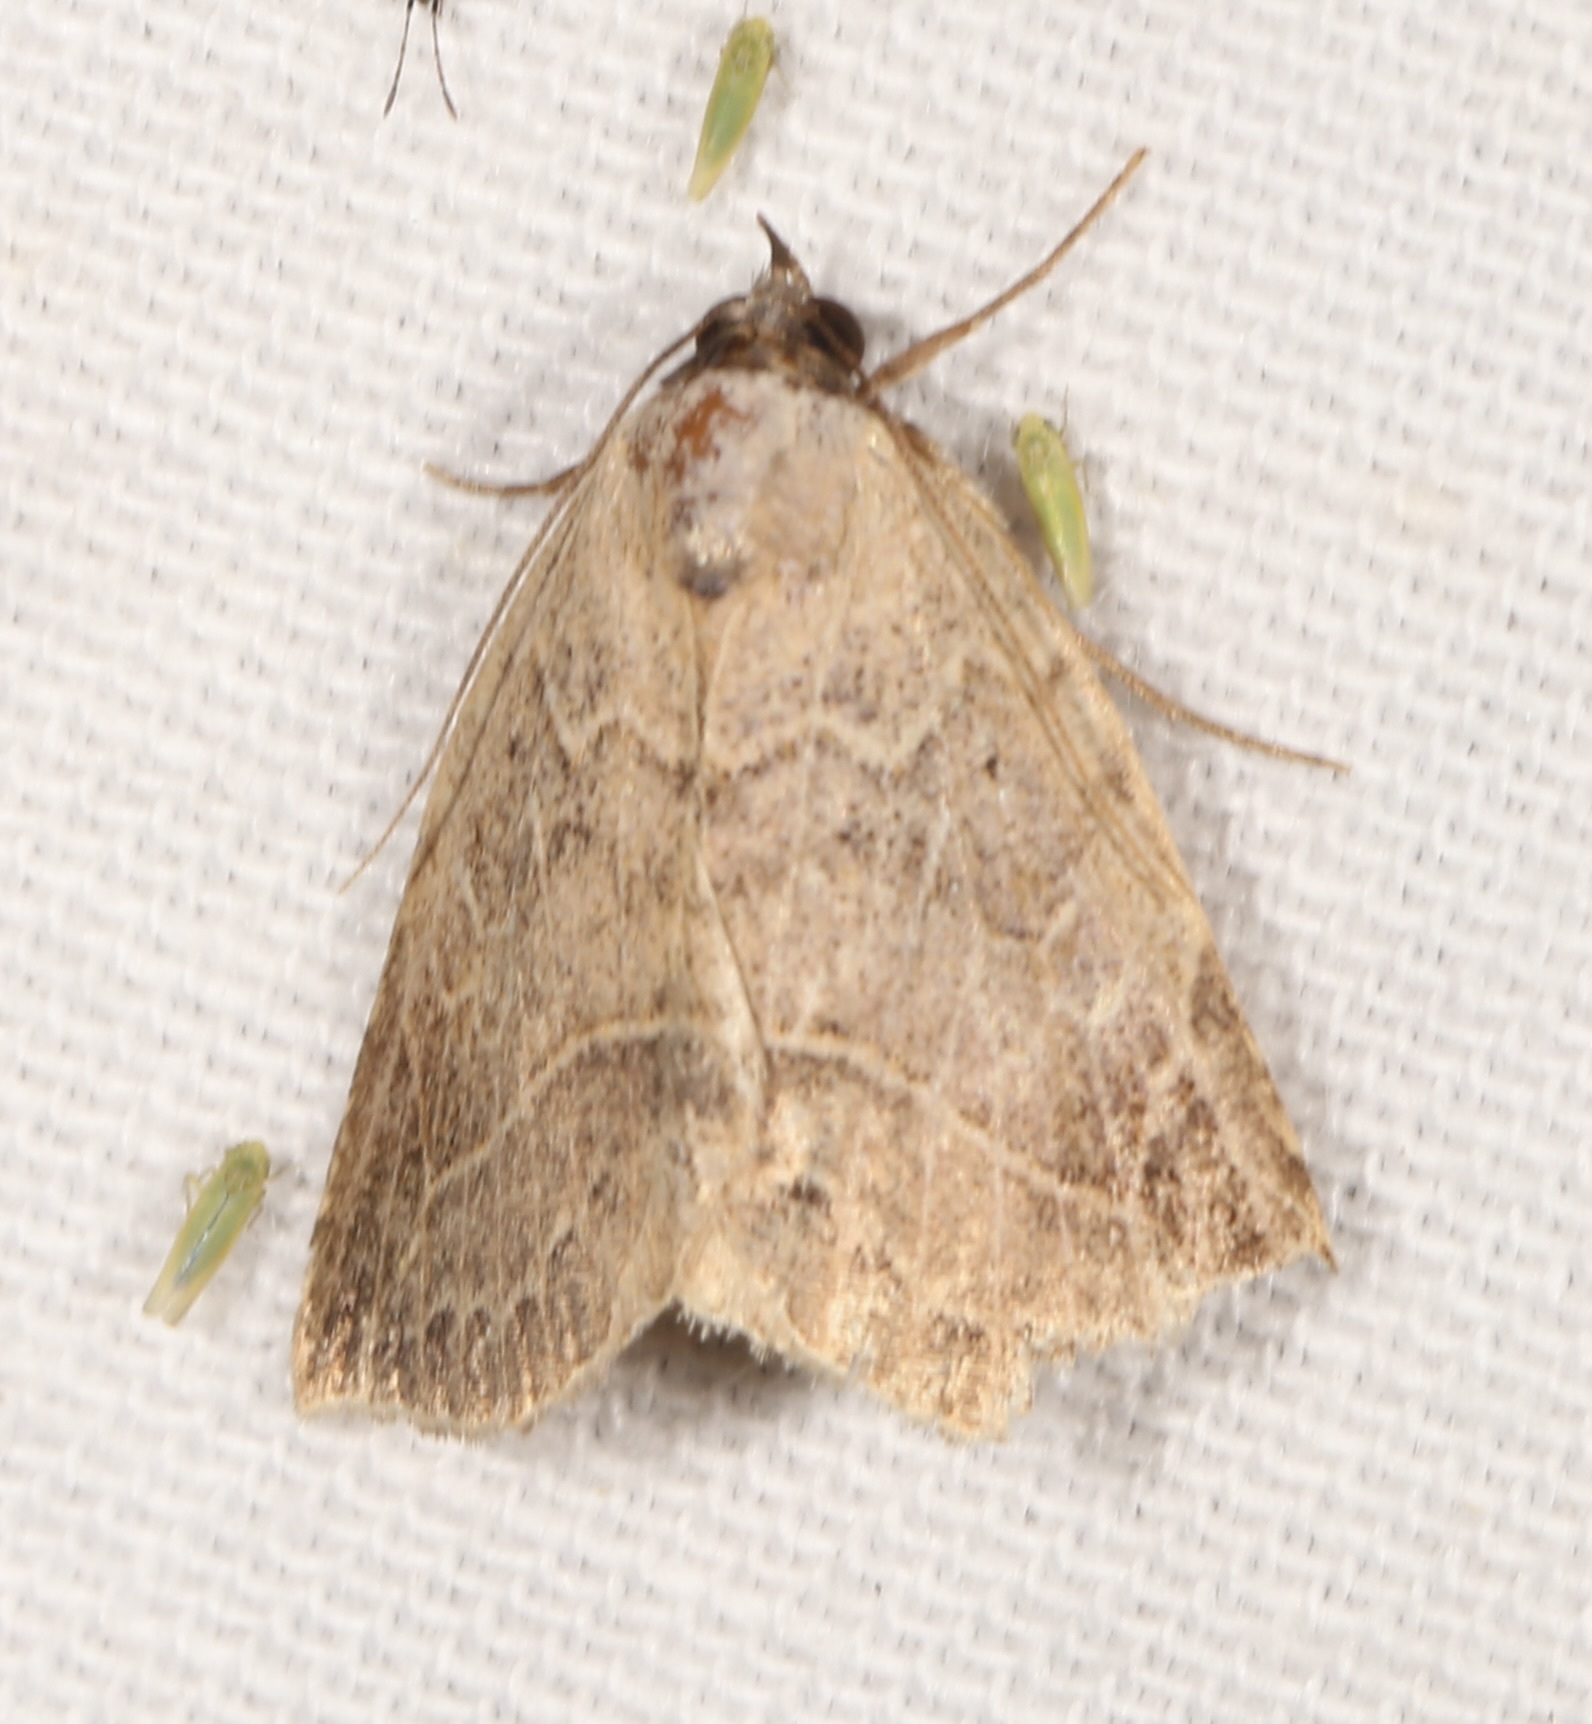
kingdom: Animalia
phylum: Arthropoda
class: Insecta
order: Lepidoptera
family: Erebidae
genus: Isogona
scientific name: Isogona segura
